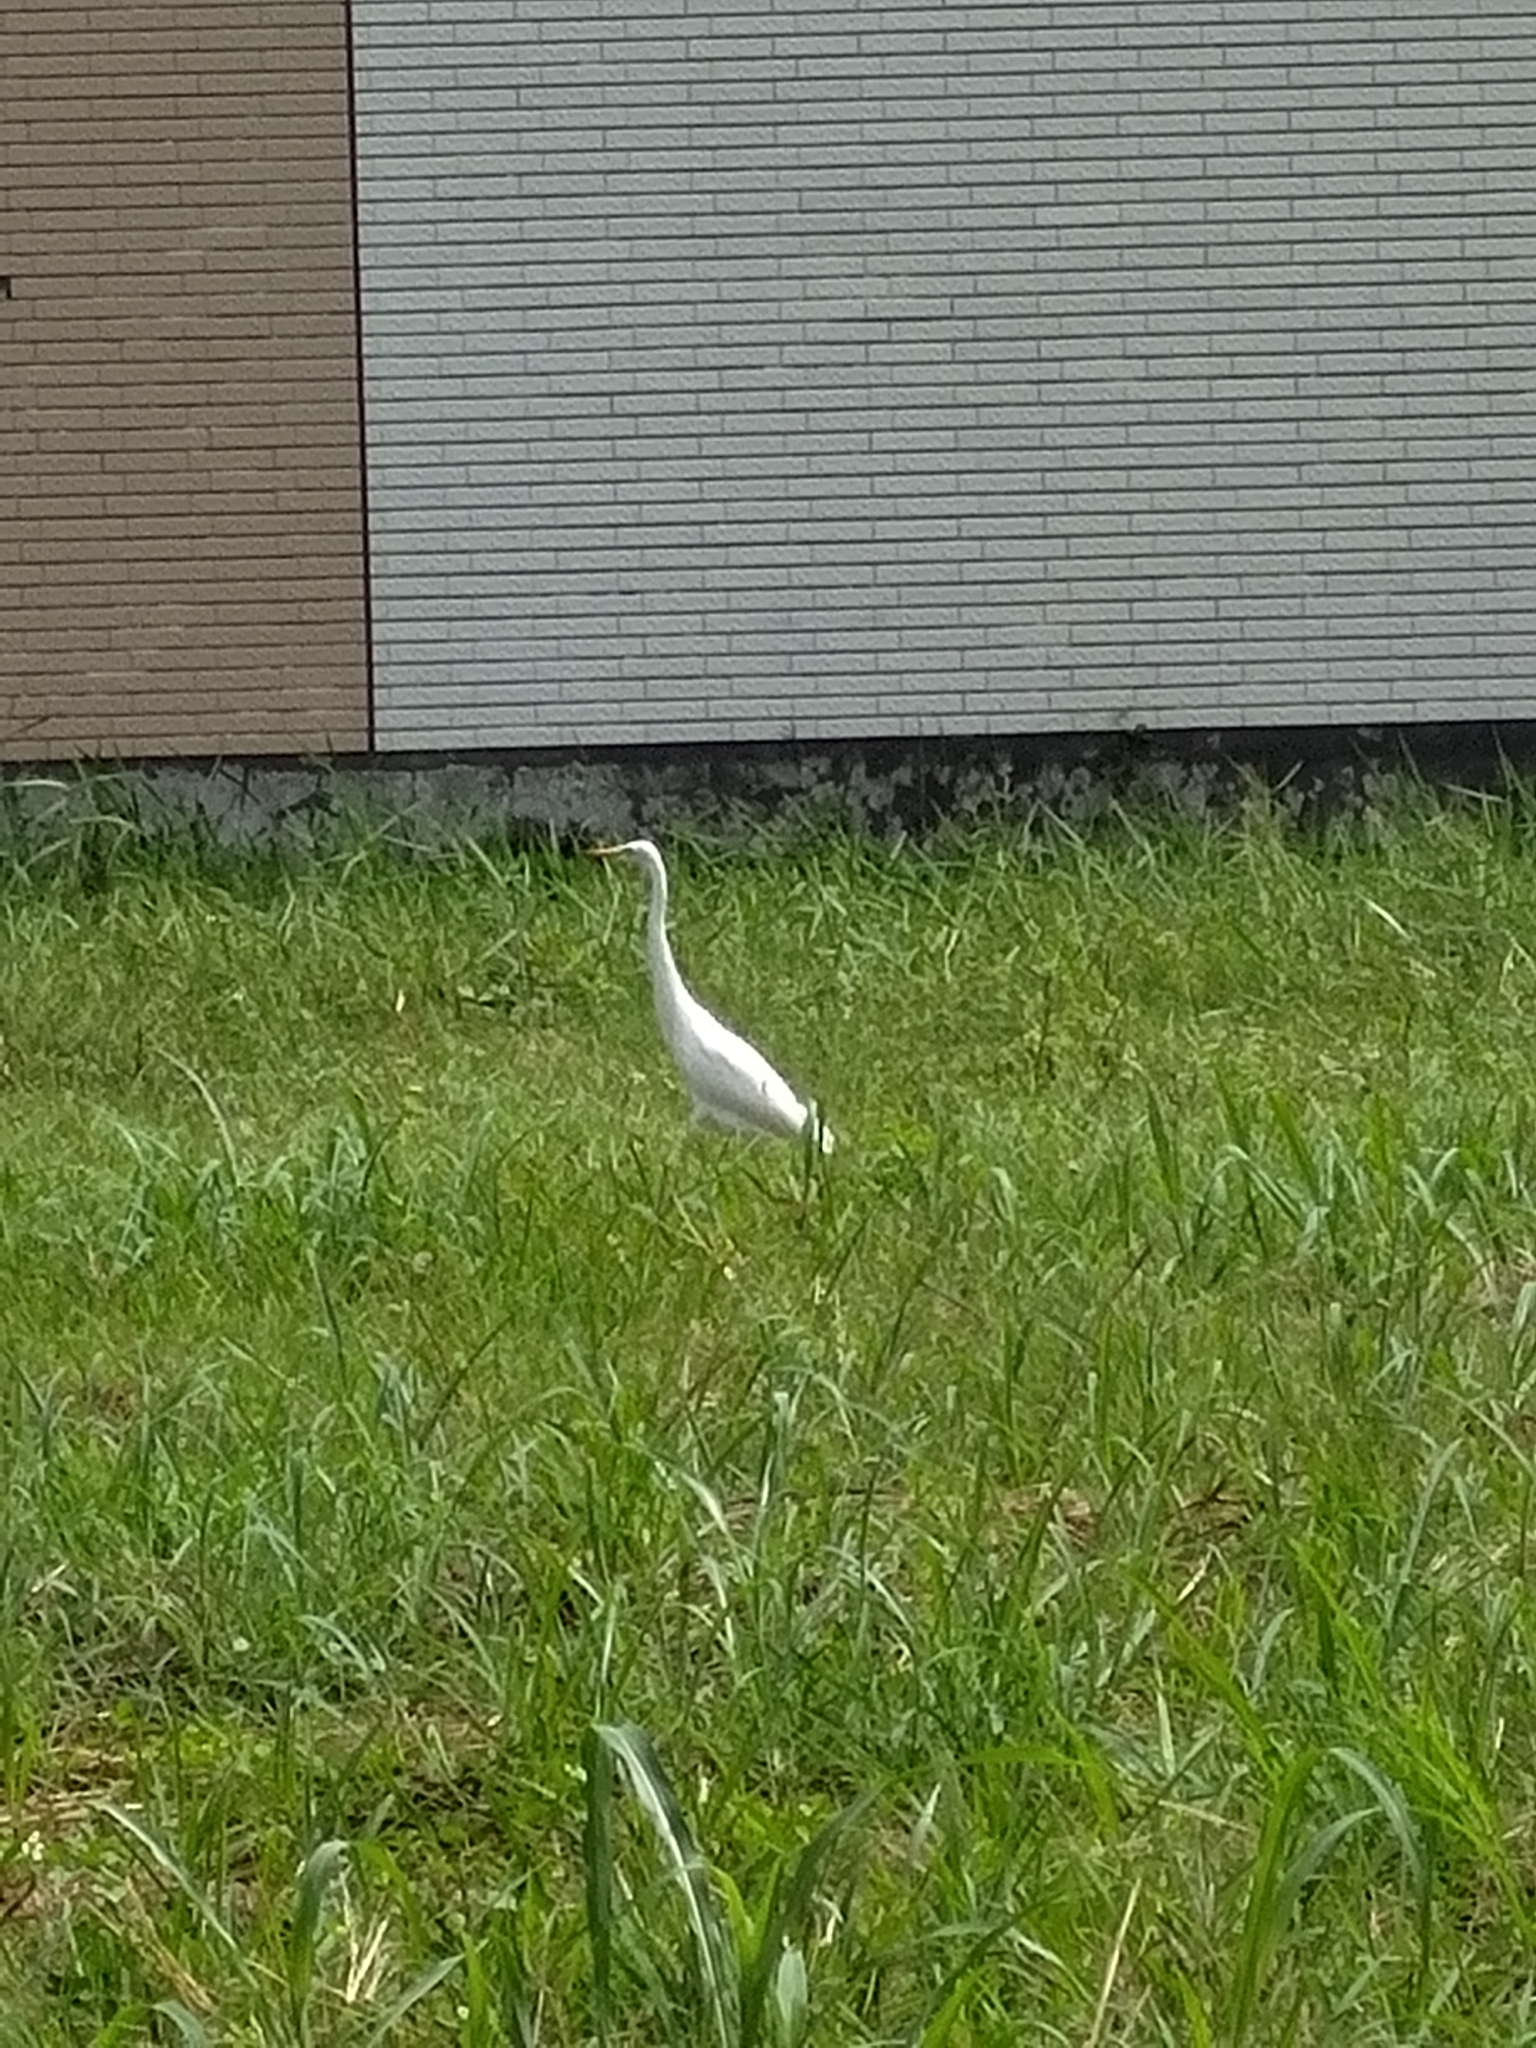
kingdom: Animalia
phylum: Chordata
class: Aves
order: Pelecaniformes
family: Ardeidae
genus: Bubulcus
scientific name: Bubulcus coromandus
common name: Eastern cattle egret
